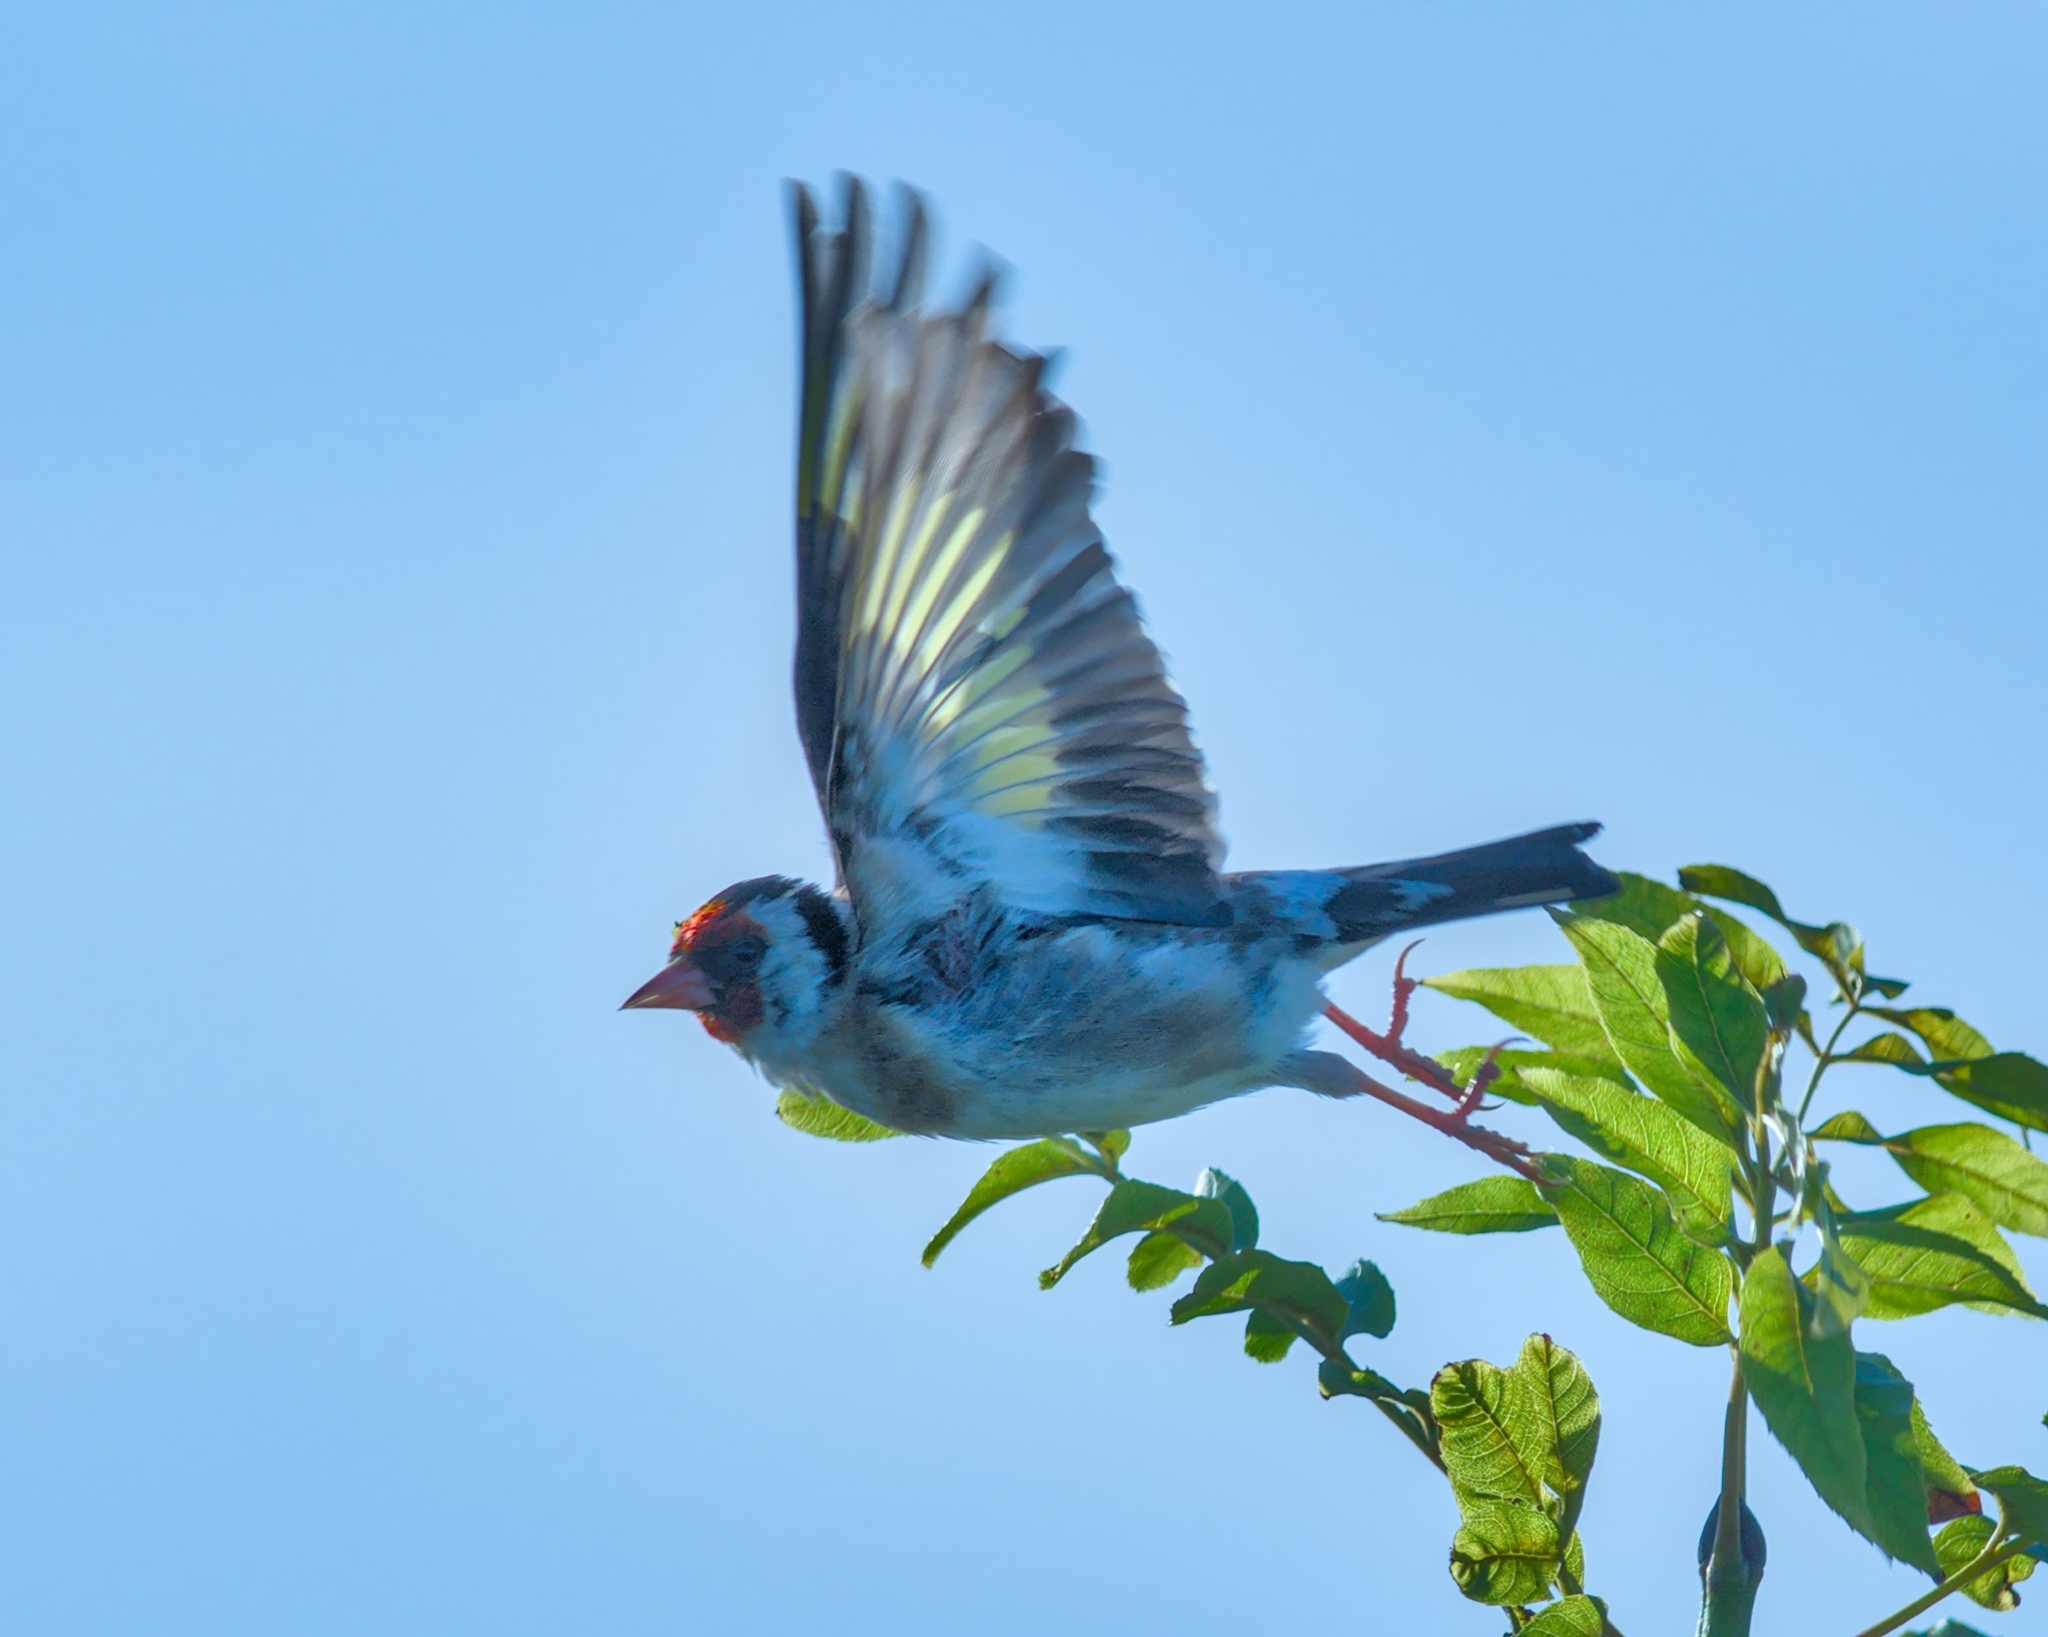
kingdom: Animalia
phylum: Chordata
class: Aves
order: Passeriformes
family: Fringillidae
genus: Carduelis
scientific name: Carduelis carduelis
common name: European goldfinch
